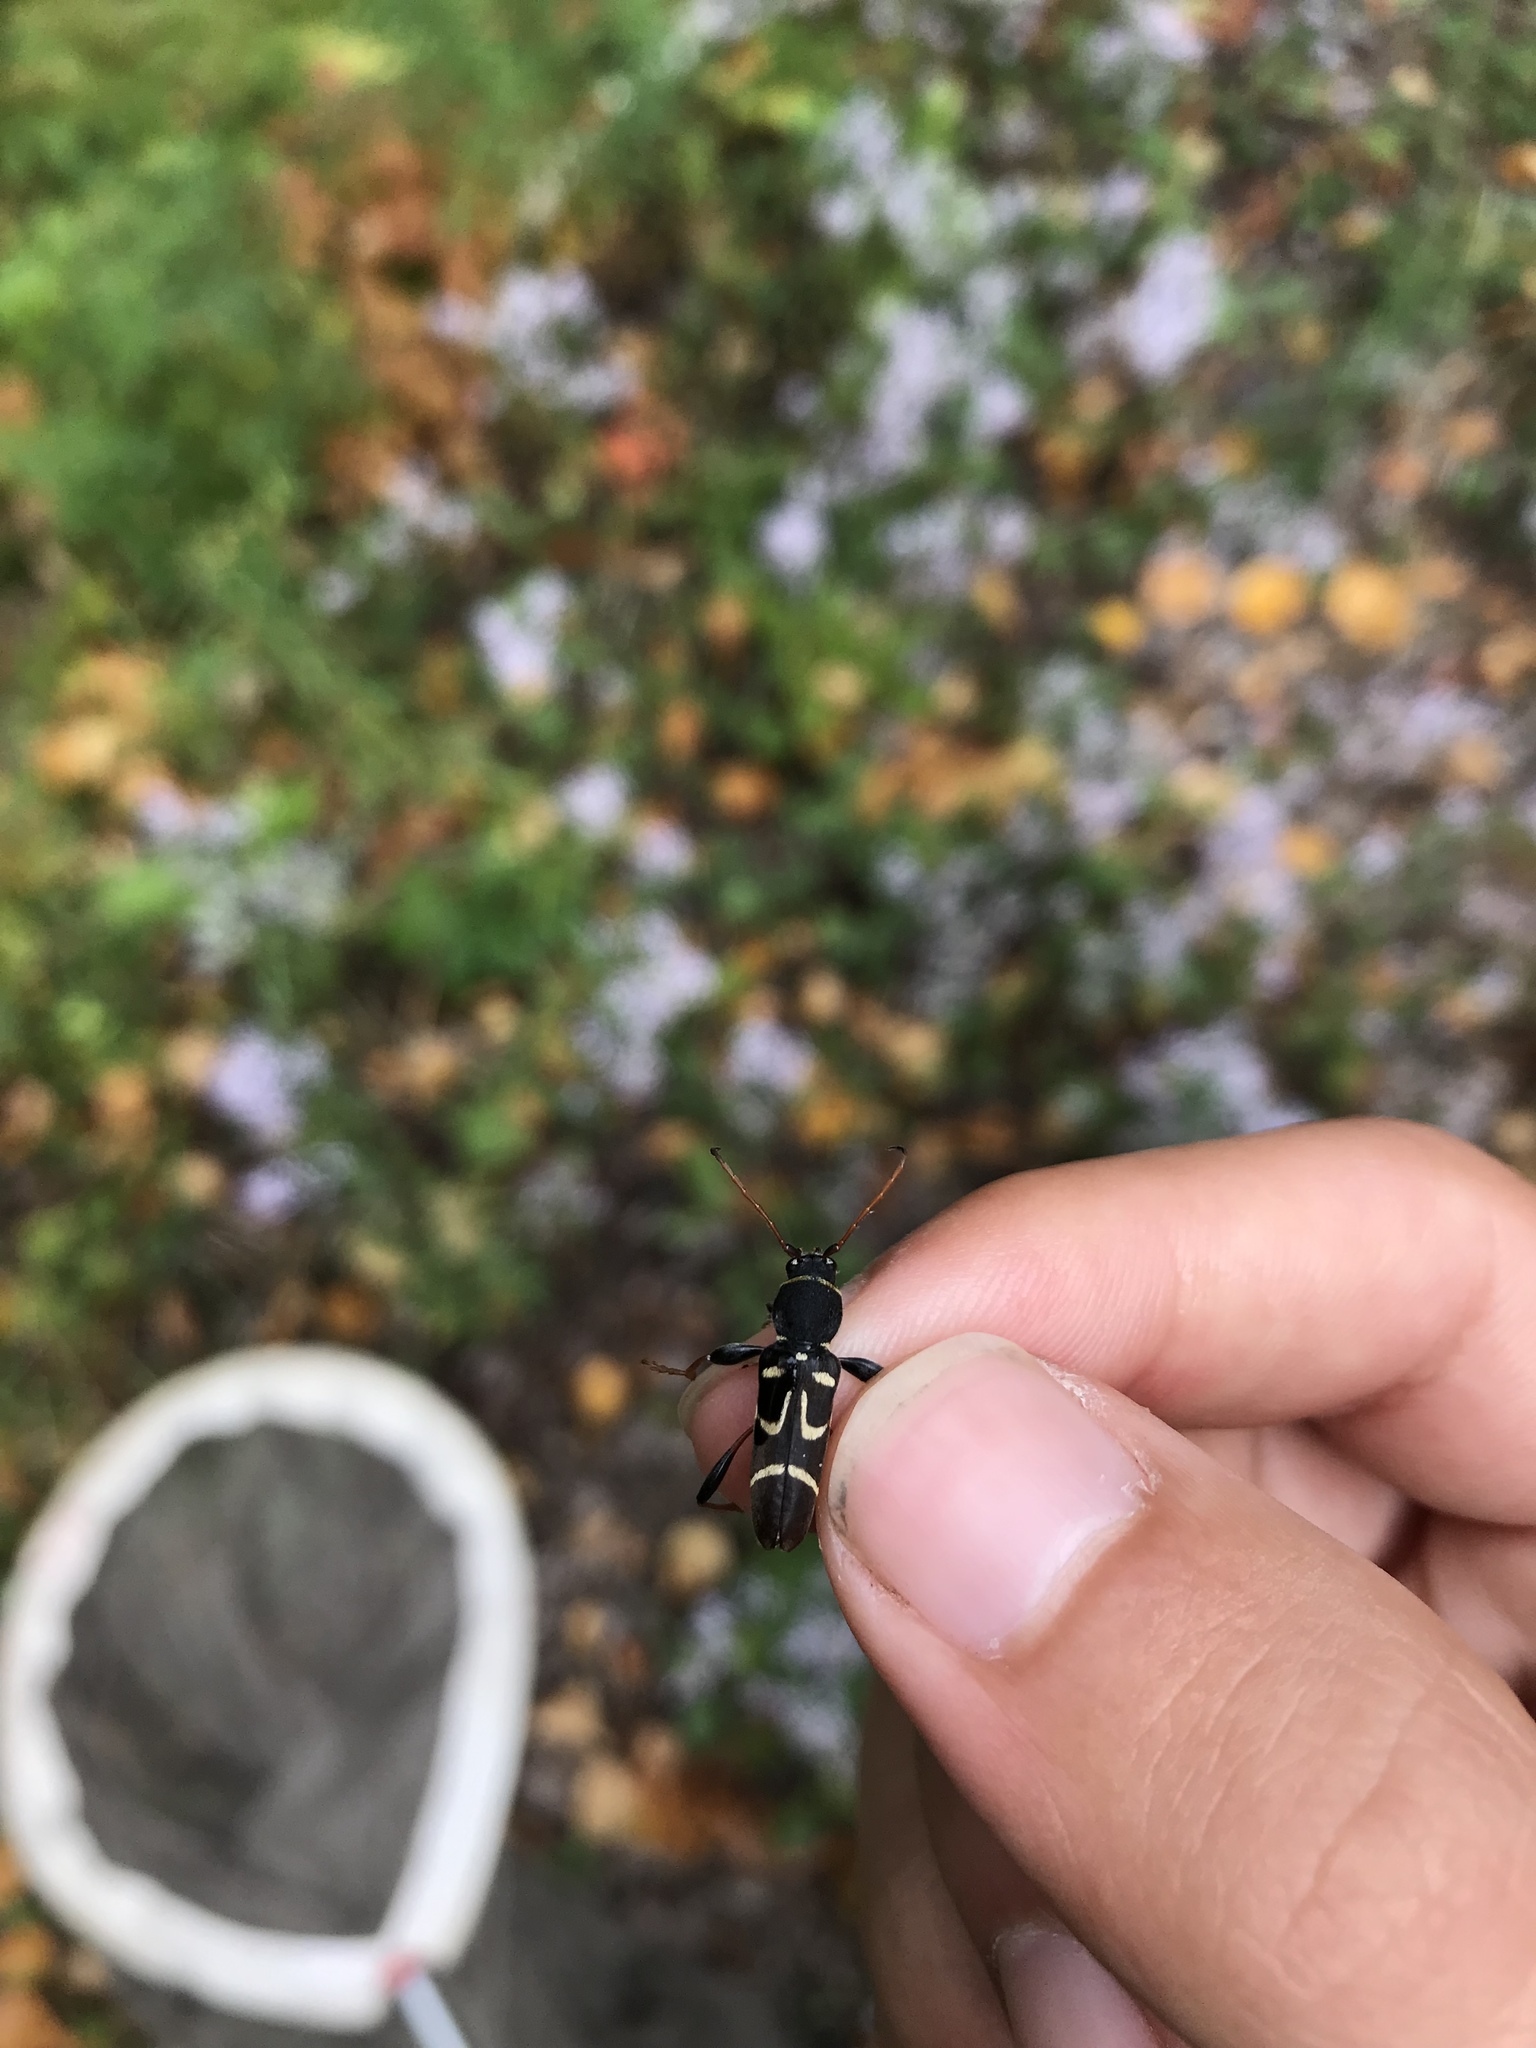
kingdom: Animalia
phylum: Arthropoda
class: Insecta
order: Coleoptera
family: Cerambycidae
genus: Clytus
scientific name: Clytus ruricola
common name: Round-necked longhorn beetle
